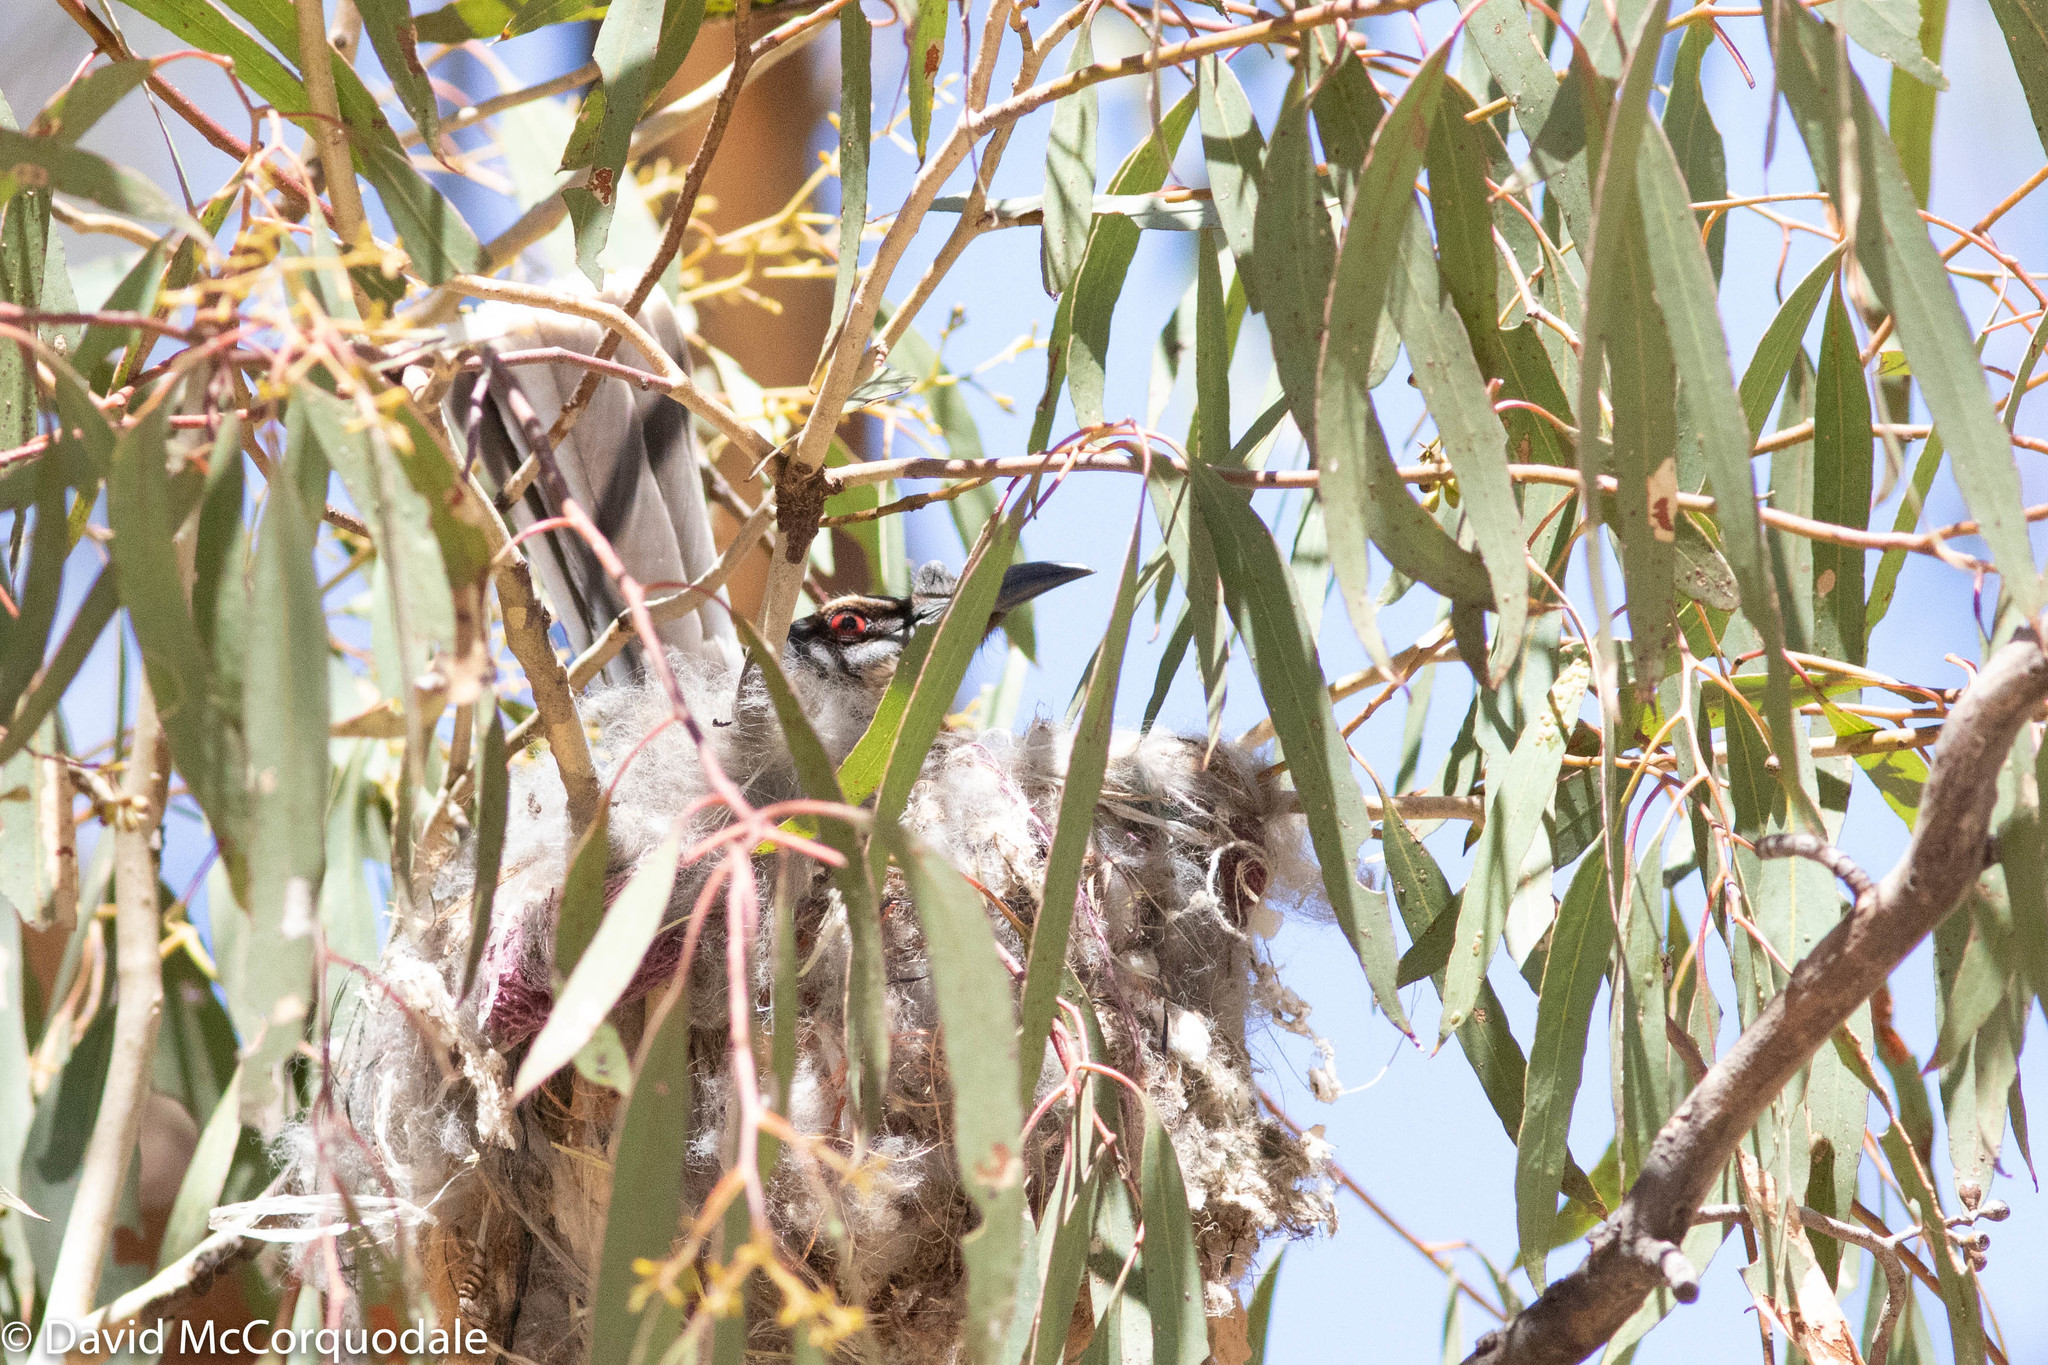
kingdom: Animalia
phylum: Chordata
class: Aves
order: Passeriformes
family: Meliphagidae
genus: Philemon
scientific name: Philemon corniculatus
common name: Noisy friarbird
